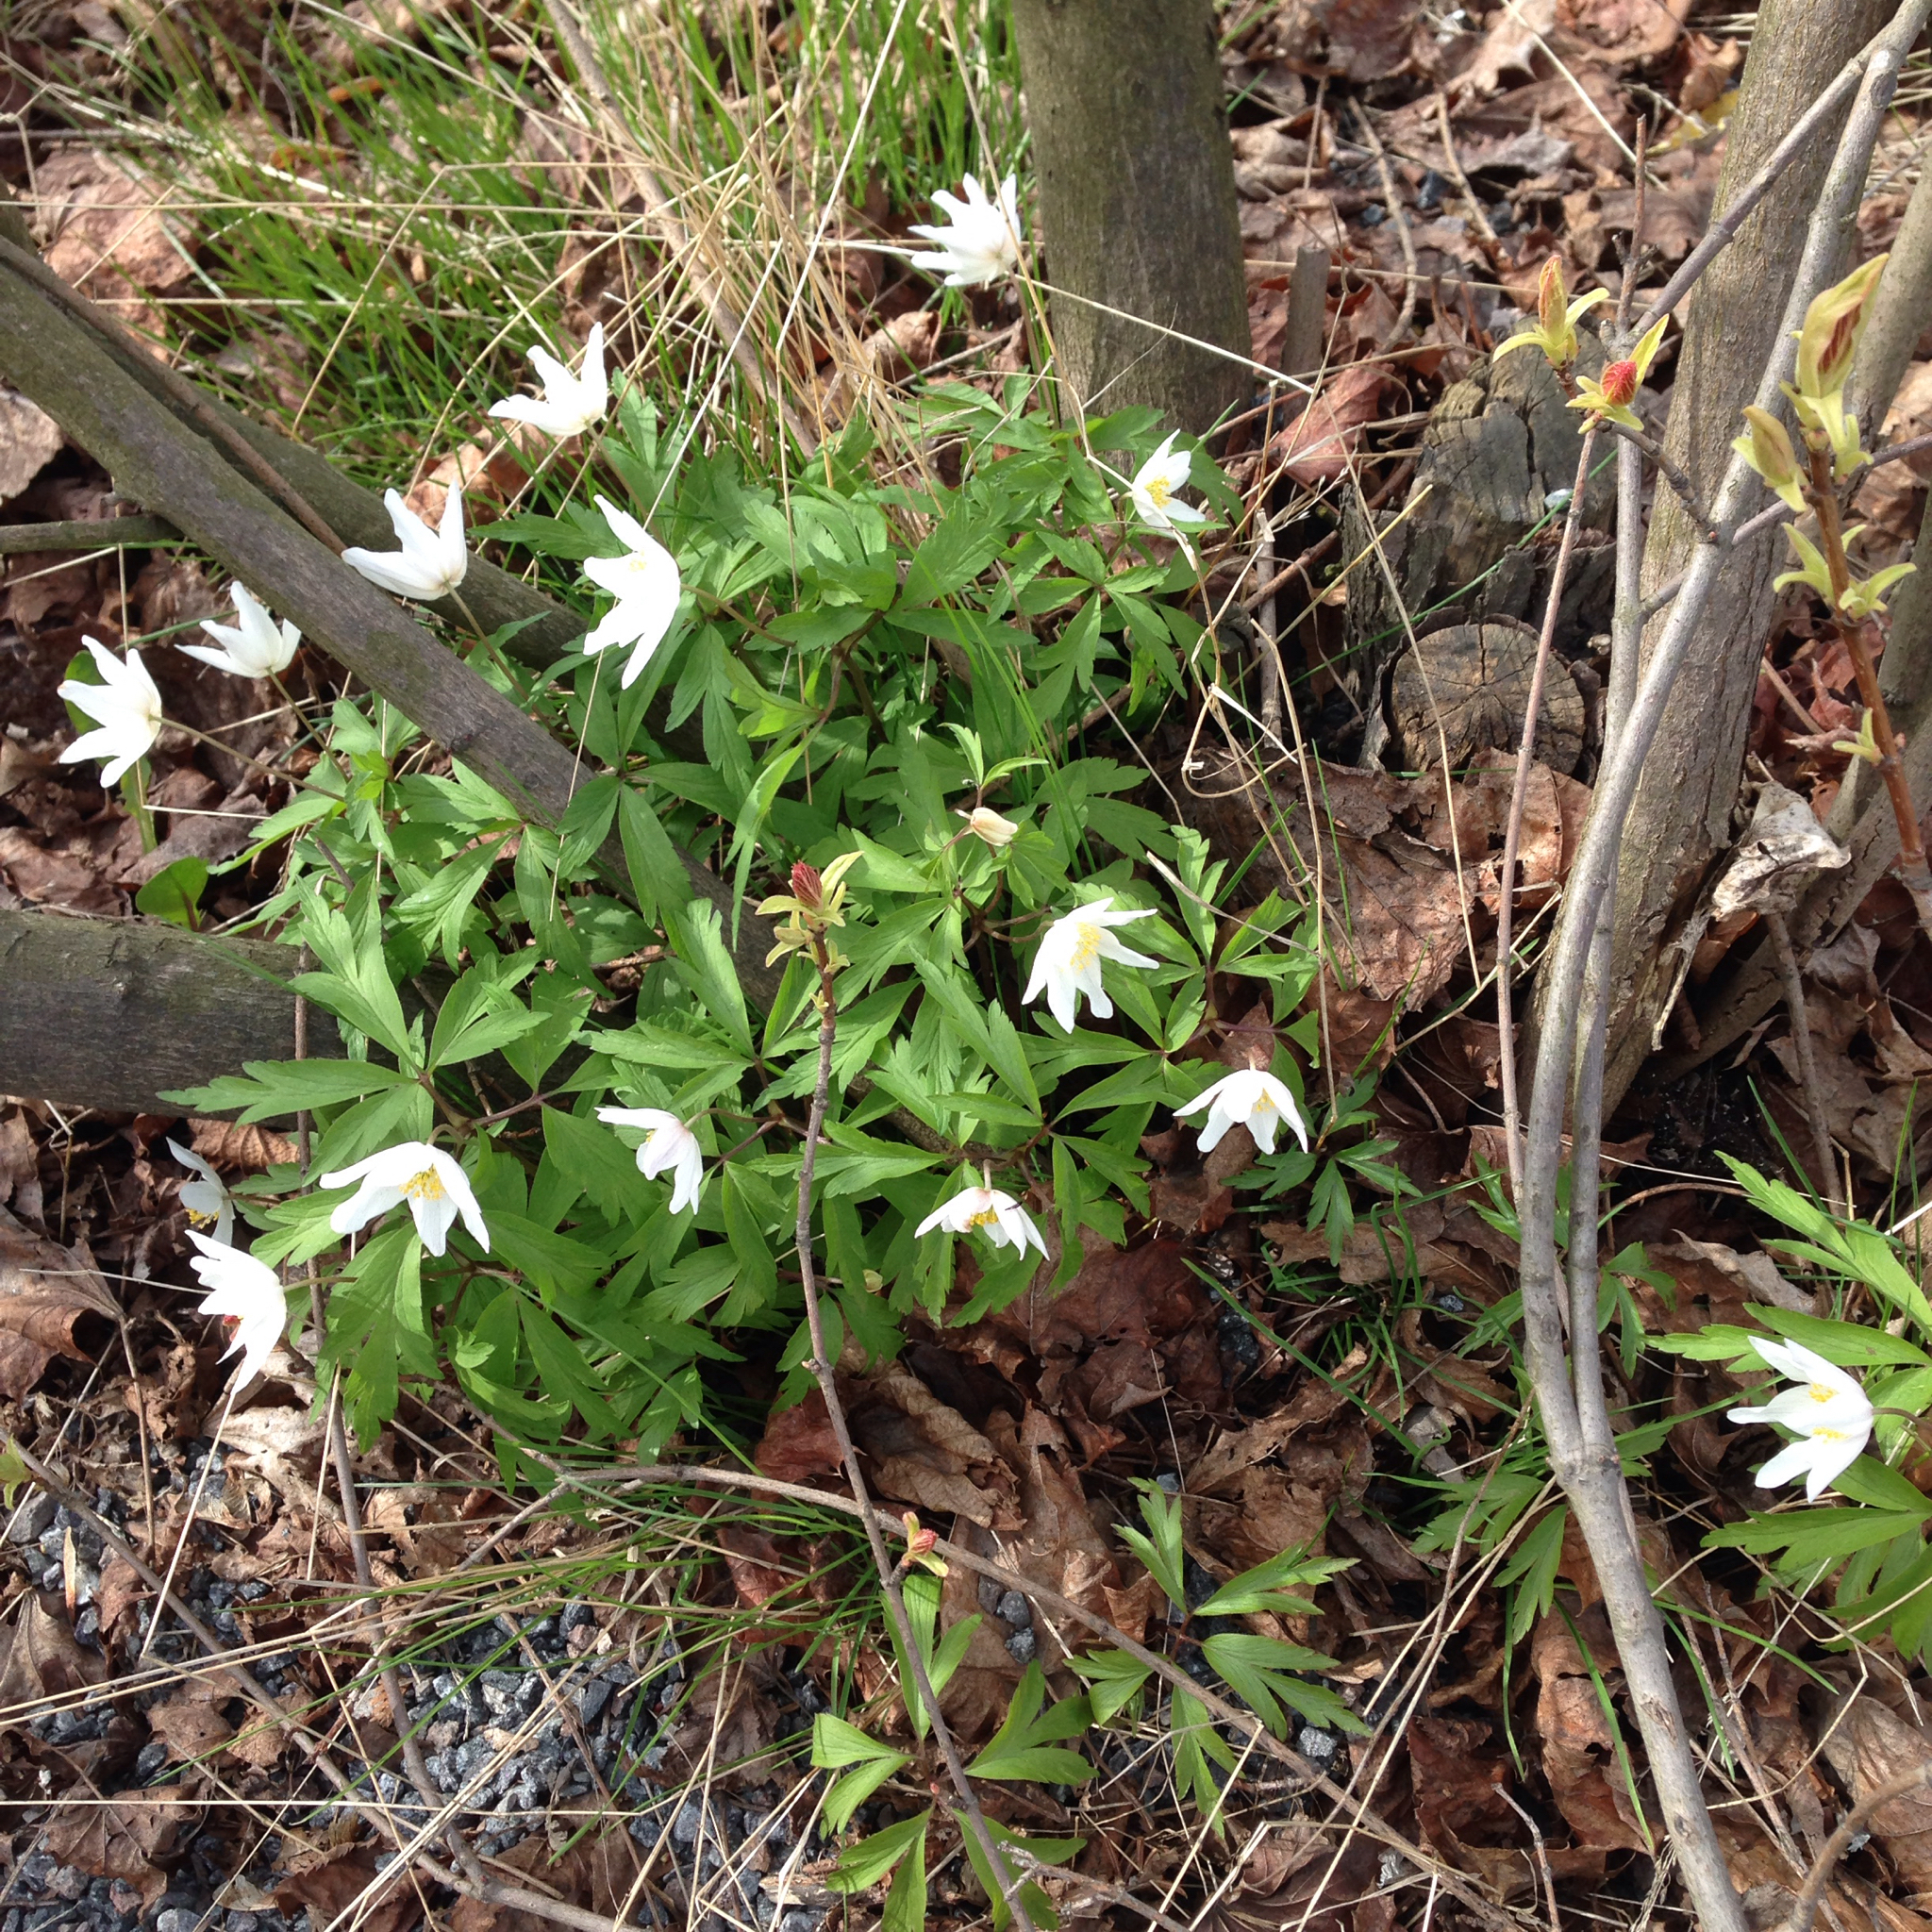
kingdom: Plantae
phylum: Tracheophyta
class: Magnoliopsida
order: Ranunculales
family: Ranunculaceae
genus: Anemone
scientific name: Anemone nemorosa
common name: Wood anemone
